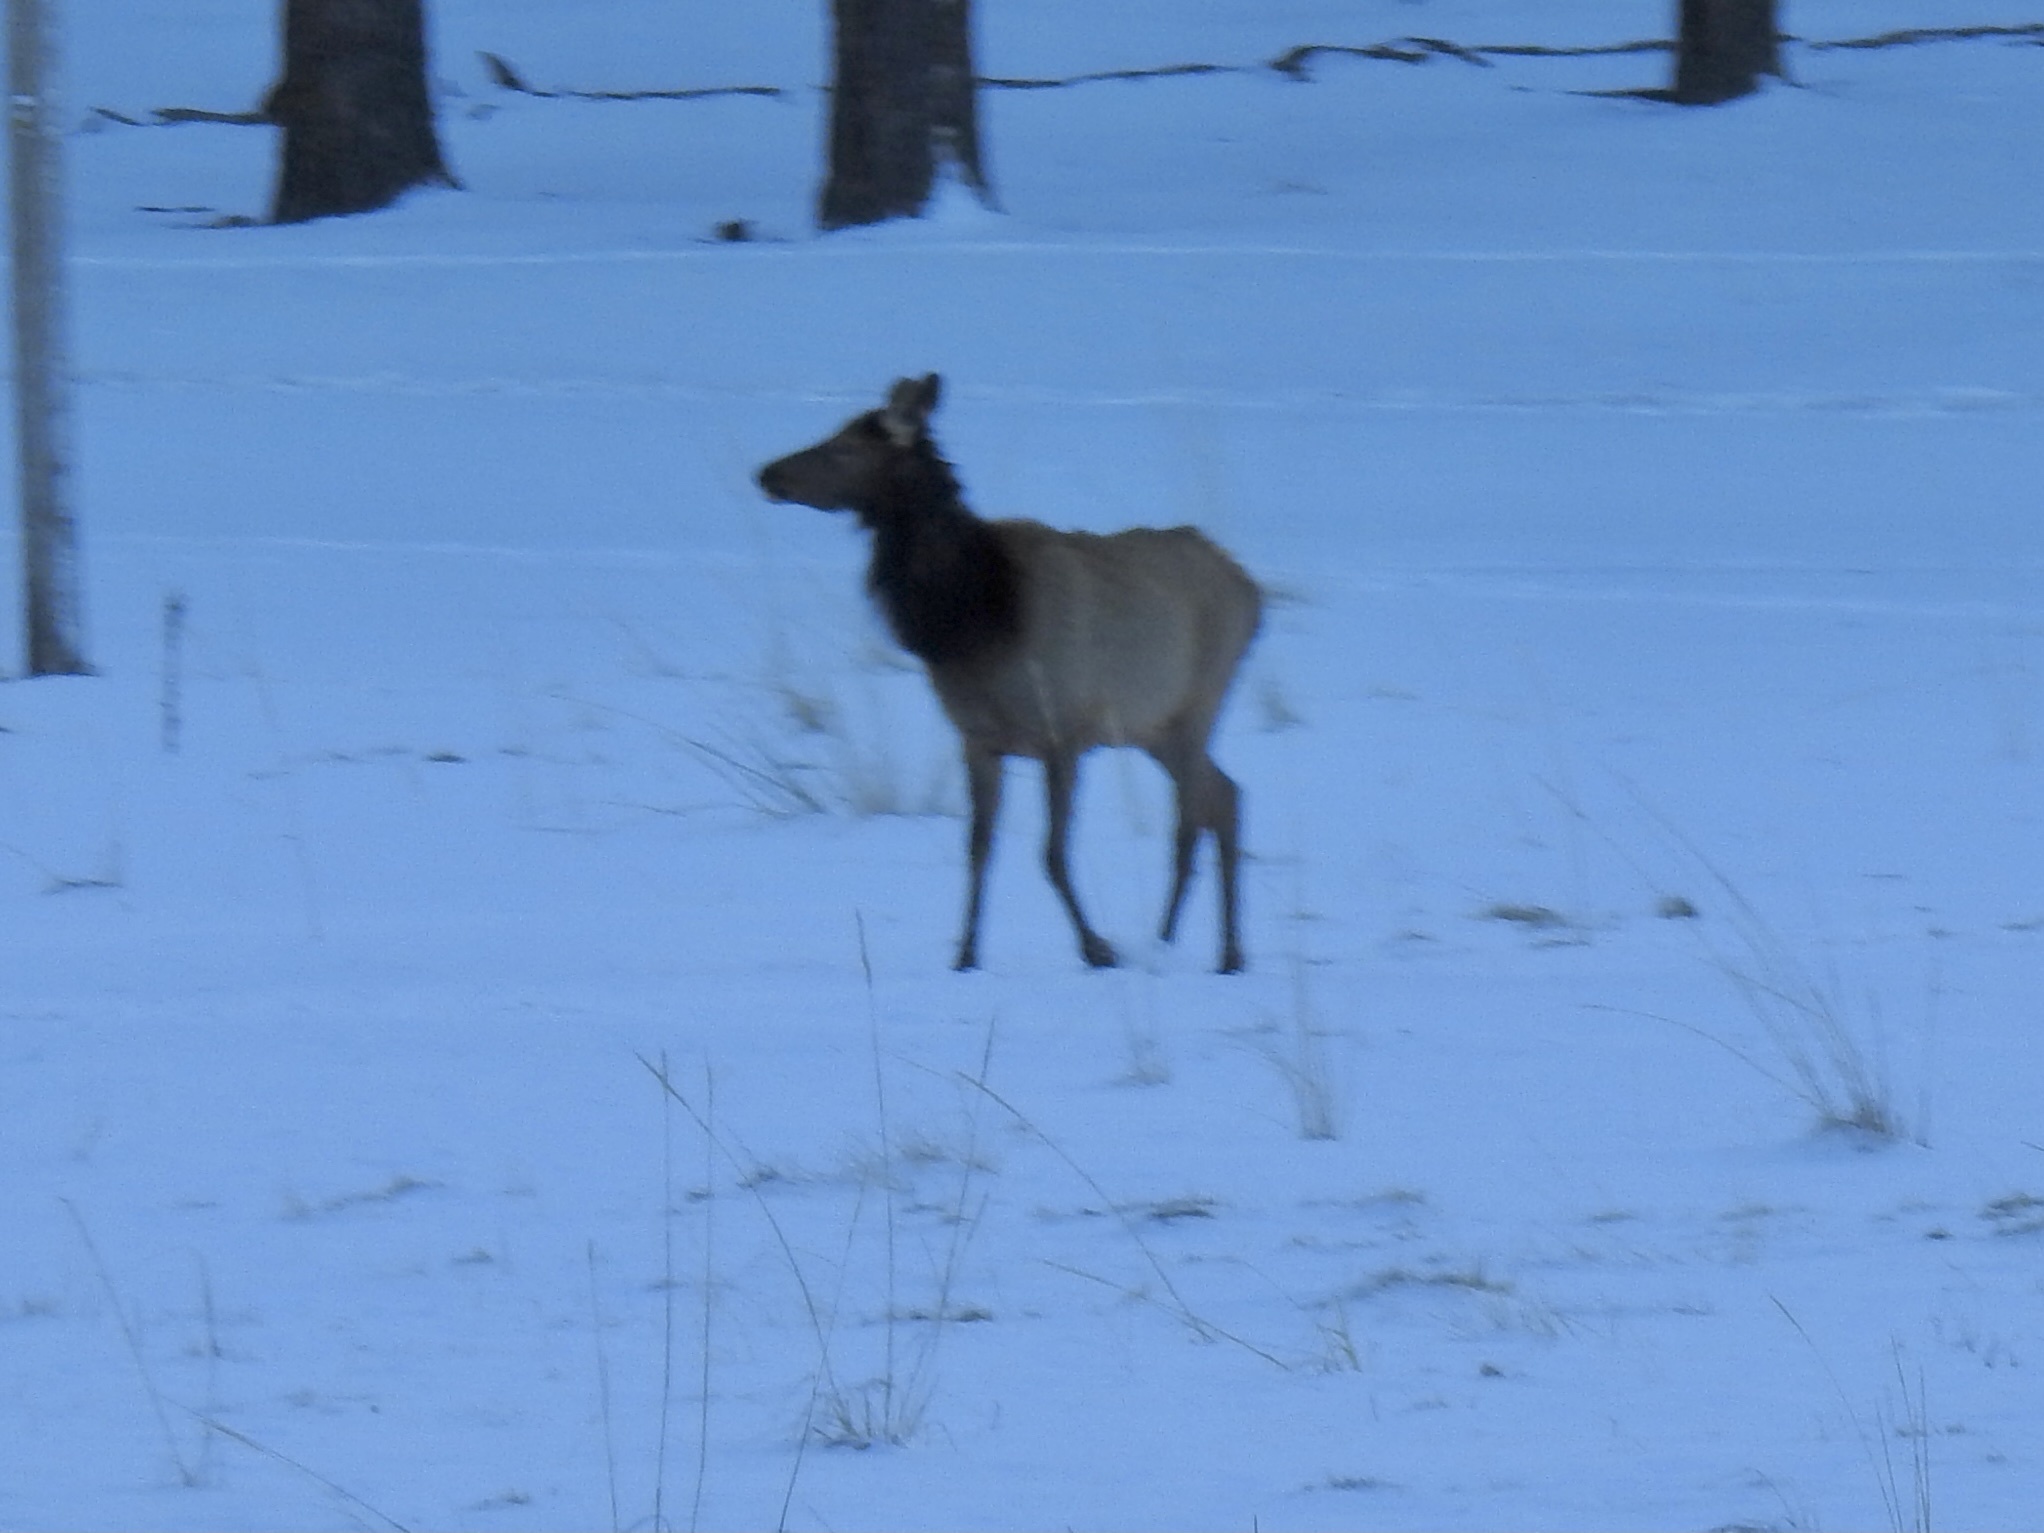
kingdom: Animalia
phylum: Chordata
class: Mammalia
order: Artiodactyla
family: Cervidae
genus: Cervus
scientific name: Cervus elaphus
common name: Red deer
